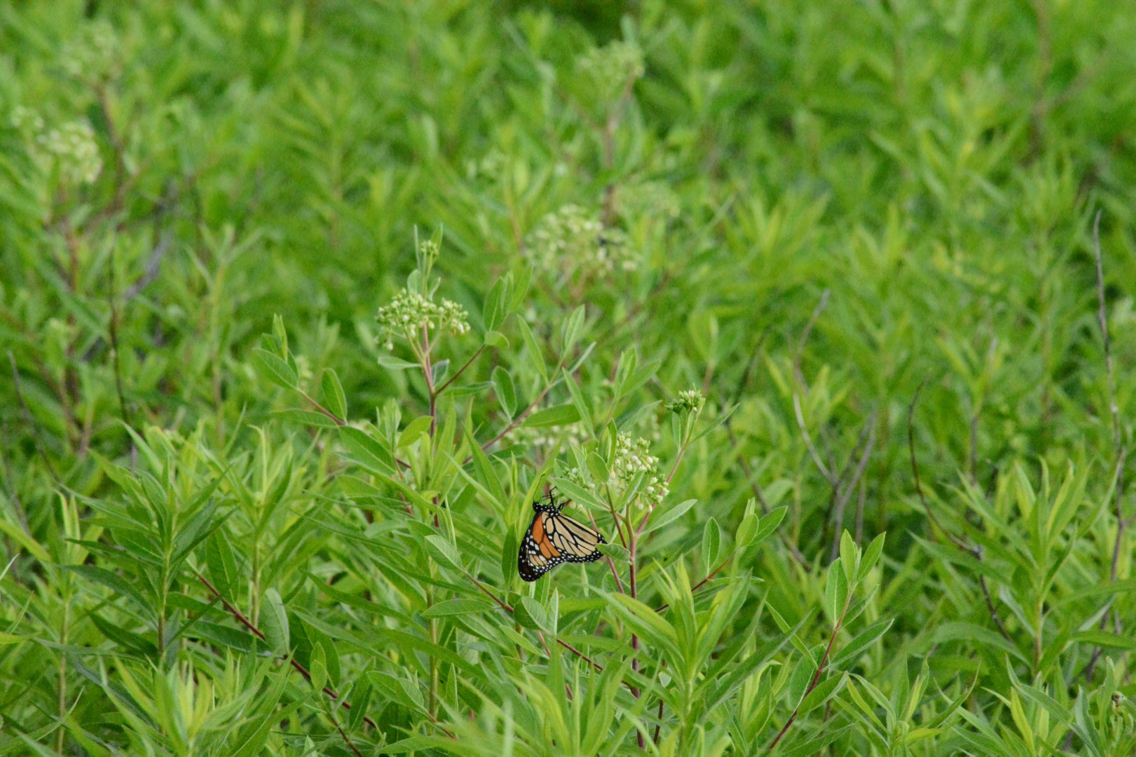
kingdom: Animalia
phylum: Arthropoda
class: Insecta
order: Lepidoptera
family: Nymphalidae
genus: Danaus
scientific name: Danaus plexippus
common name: Monarch
